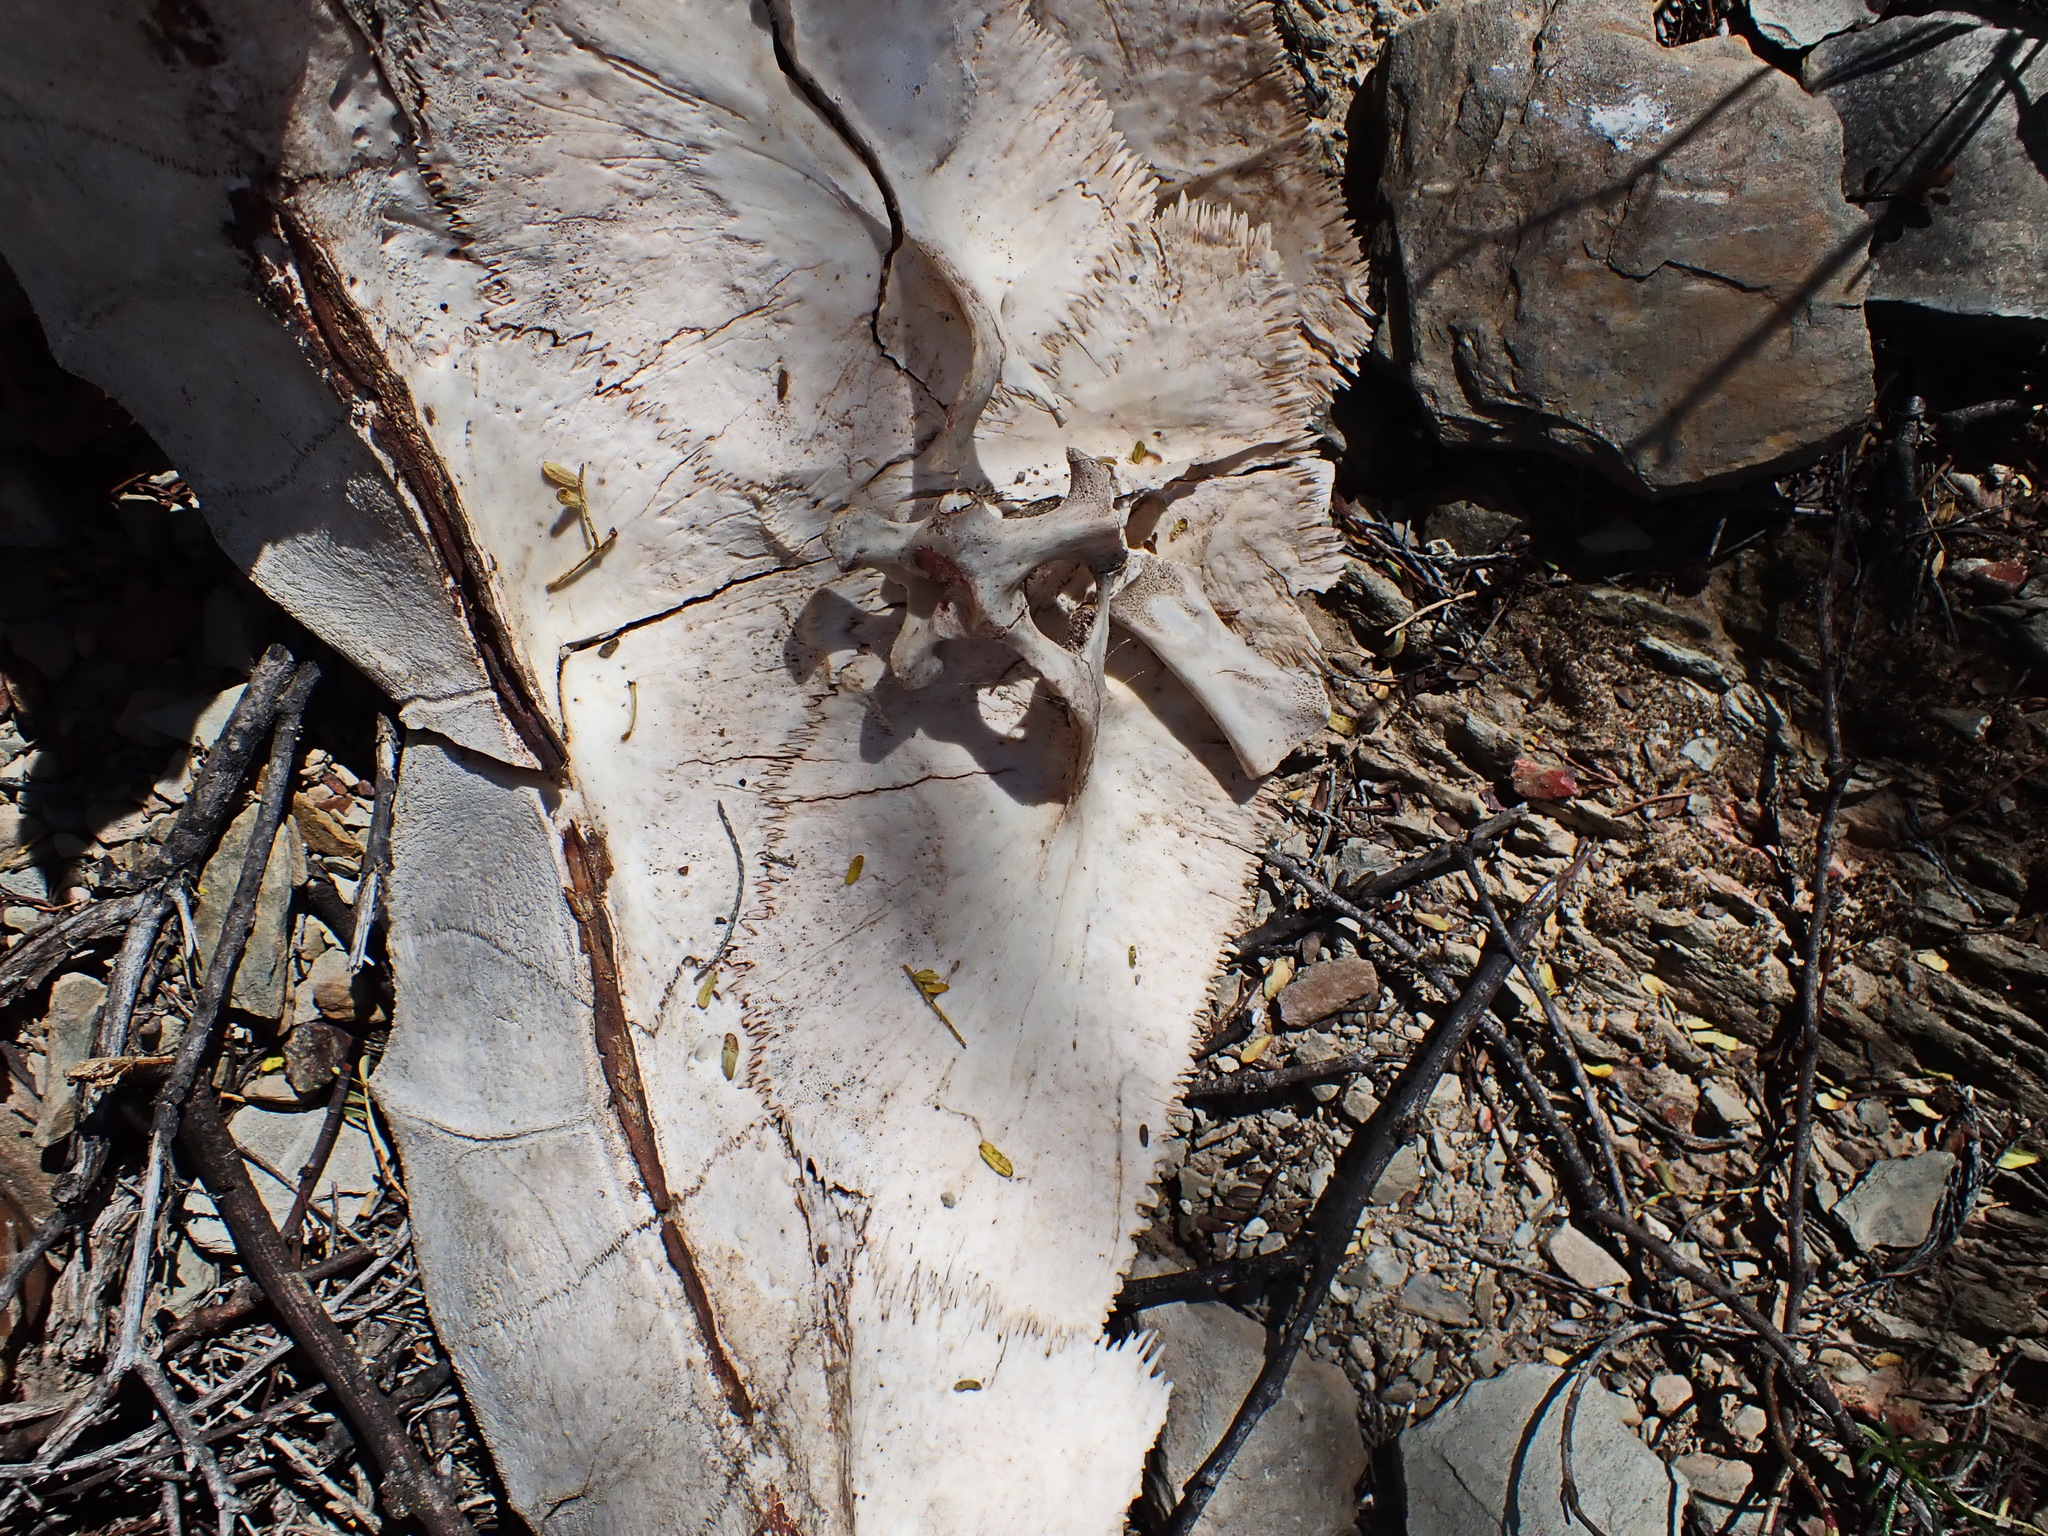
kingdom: Animalia
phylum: Chordata
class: Testudines
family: Testudinidae
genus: Stigmochelys
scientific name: Stigmochelys pardalis
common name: Leopard tortoise
